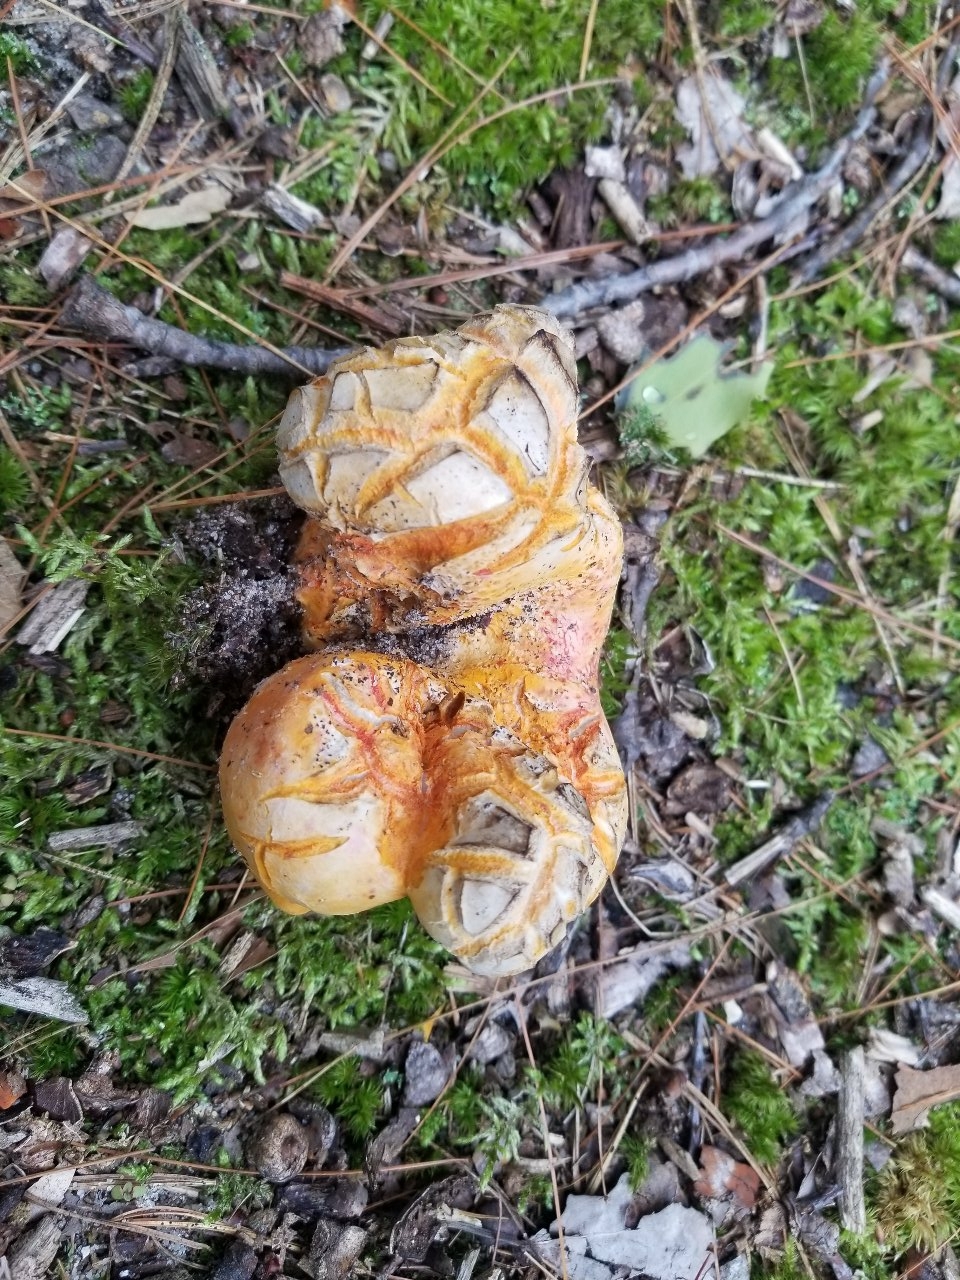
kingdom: Fungi
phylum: Ascomycota
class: Sordariomycetes
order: Hypocreales
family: Hypocreaceae
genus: Hypomyces
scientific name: Hypomyces lactifluorum
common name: Lobster mushroom
